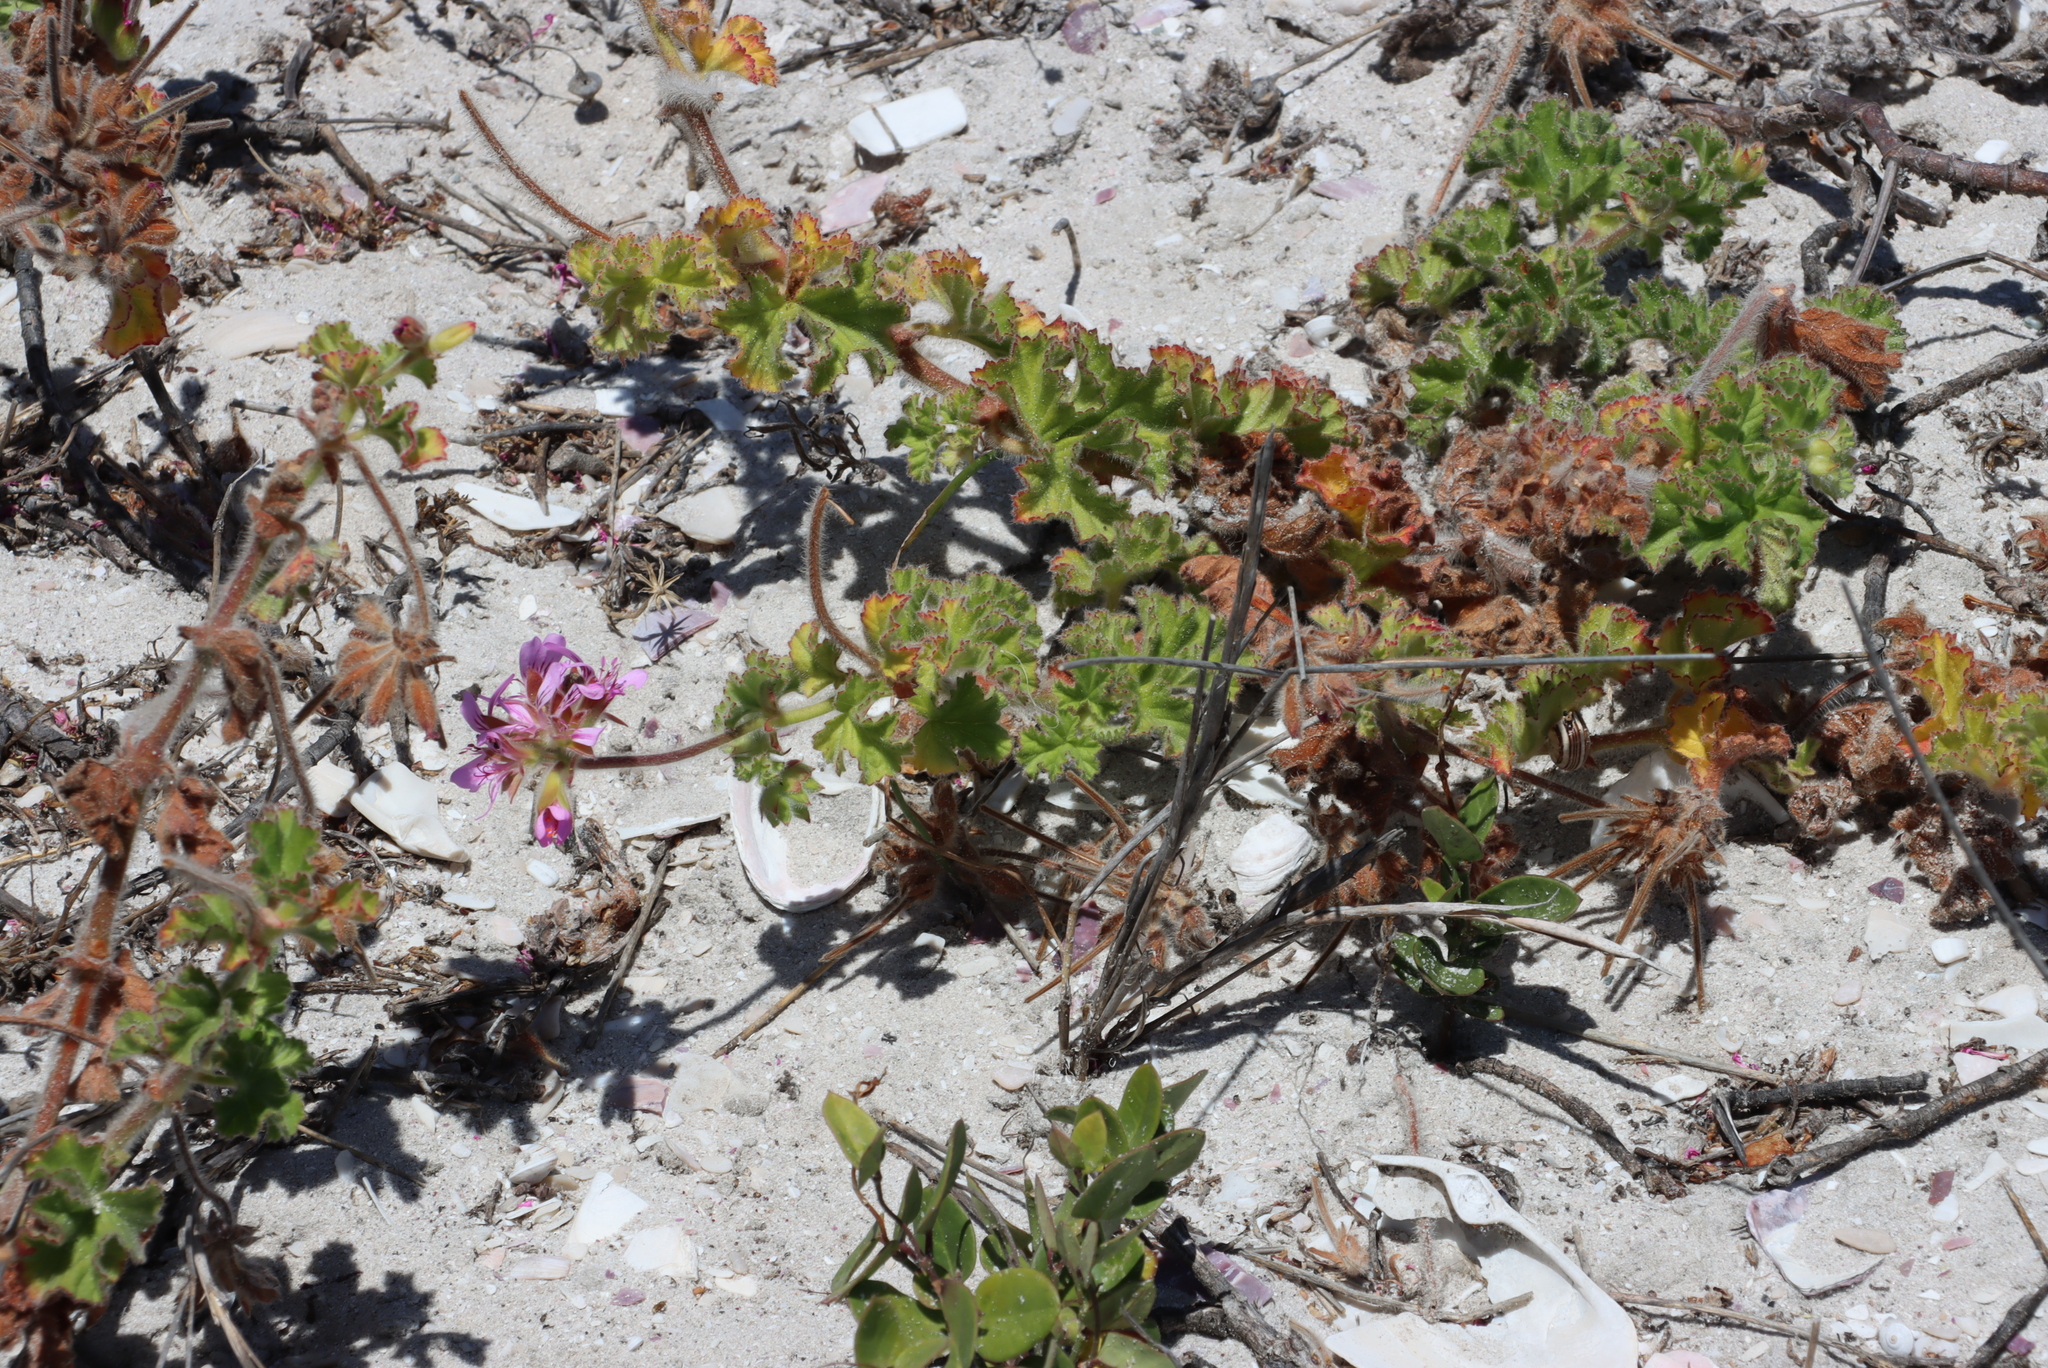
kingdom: Plantae
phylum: Tracheophyta
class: Magnoliopsida
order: Geraniales
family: Geraniaceae
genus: Pelargonium
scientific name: Pelargonium capitatum
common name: Rose scented geranium
